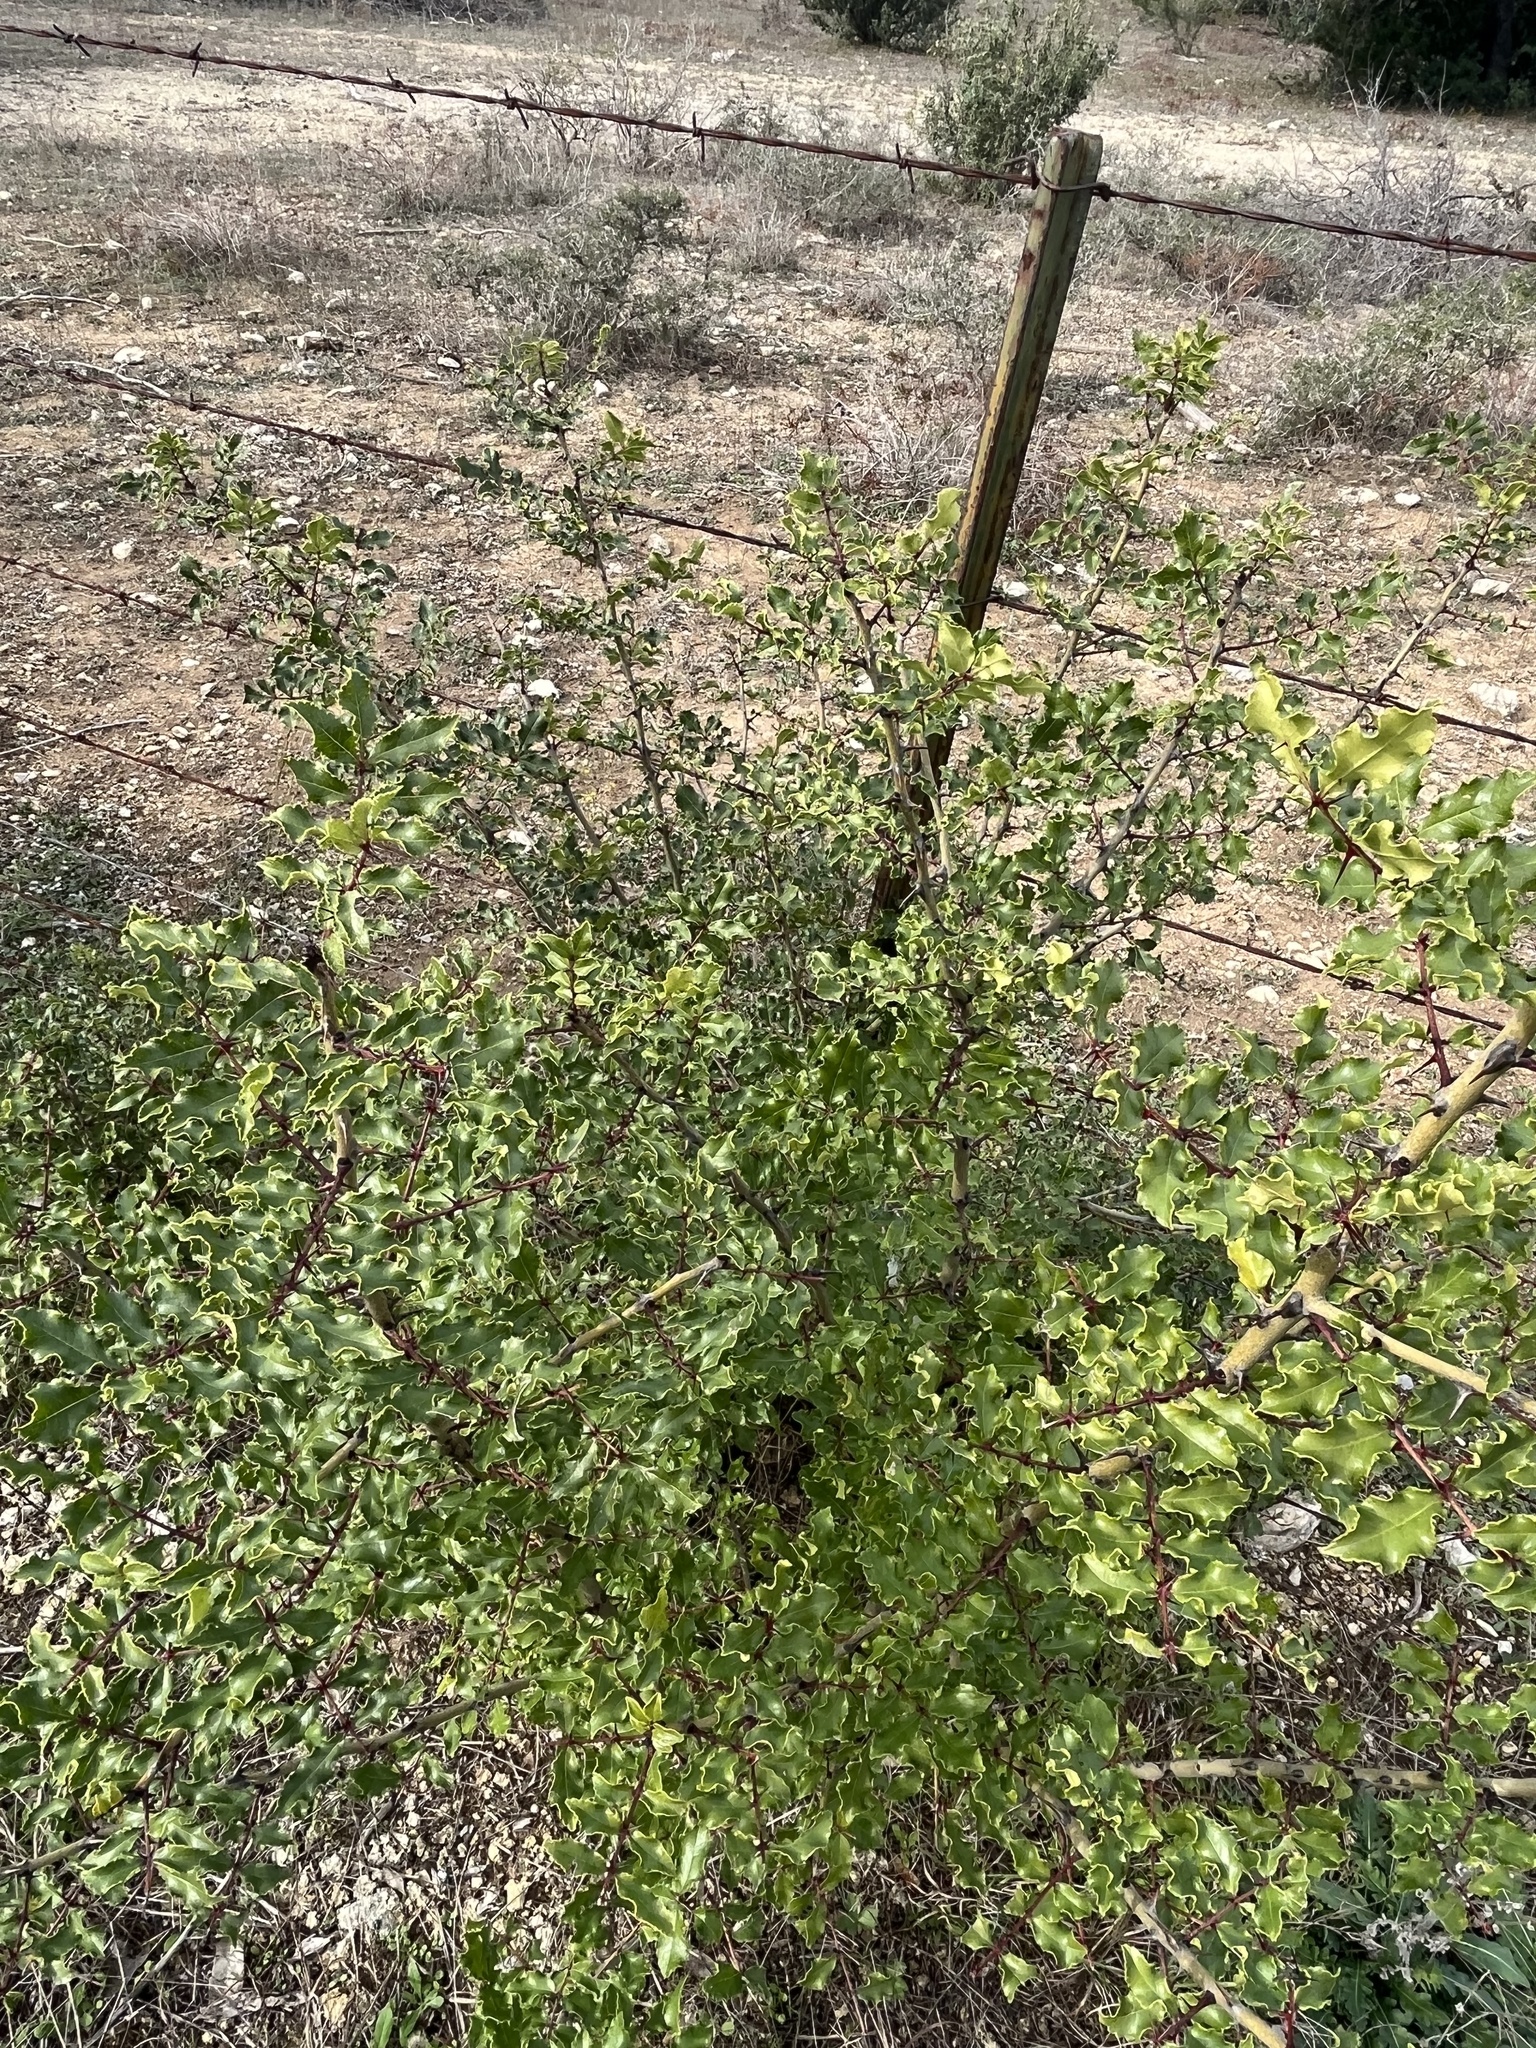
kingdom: Plantae
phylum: Tracheophyta
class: Magnoliopsida
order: Sapindales
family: Rutaceae
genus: Zanthoxylum
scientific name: Zanthoxylum clava-herculis
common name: Hercules'-club
